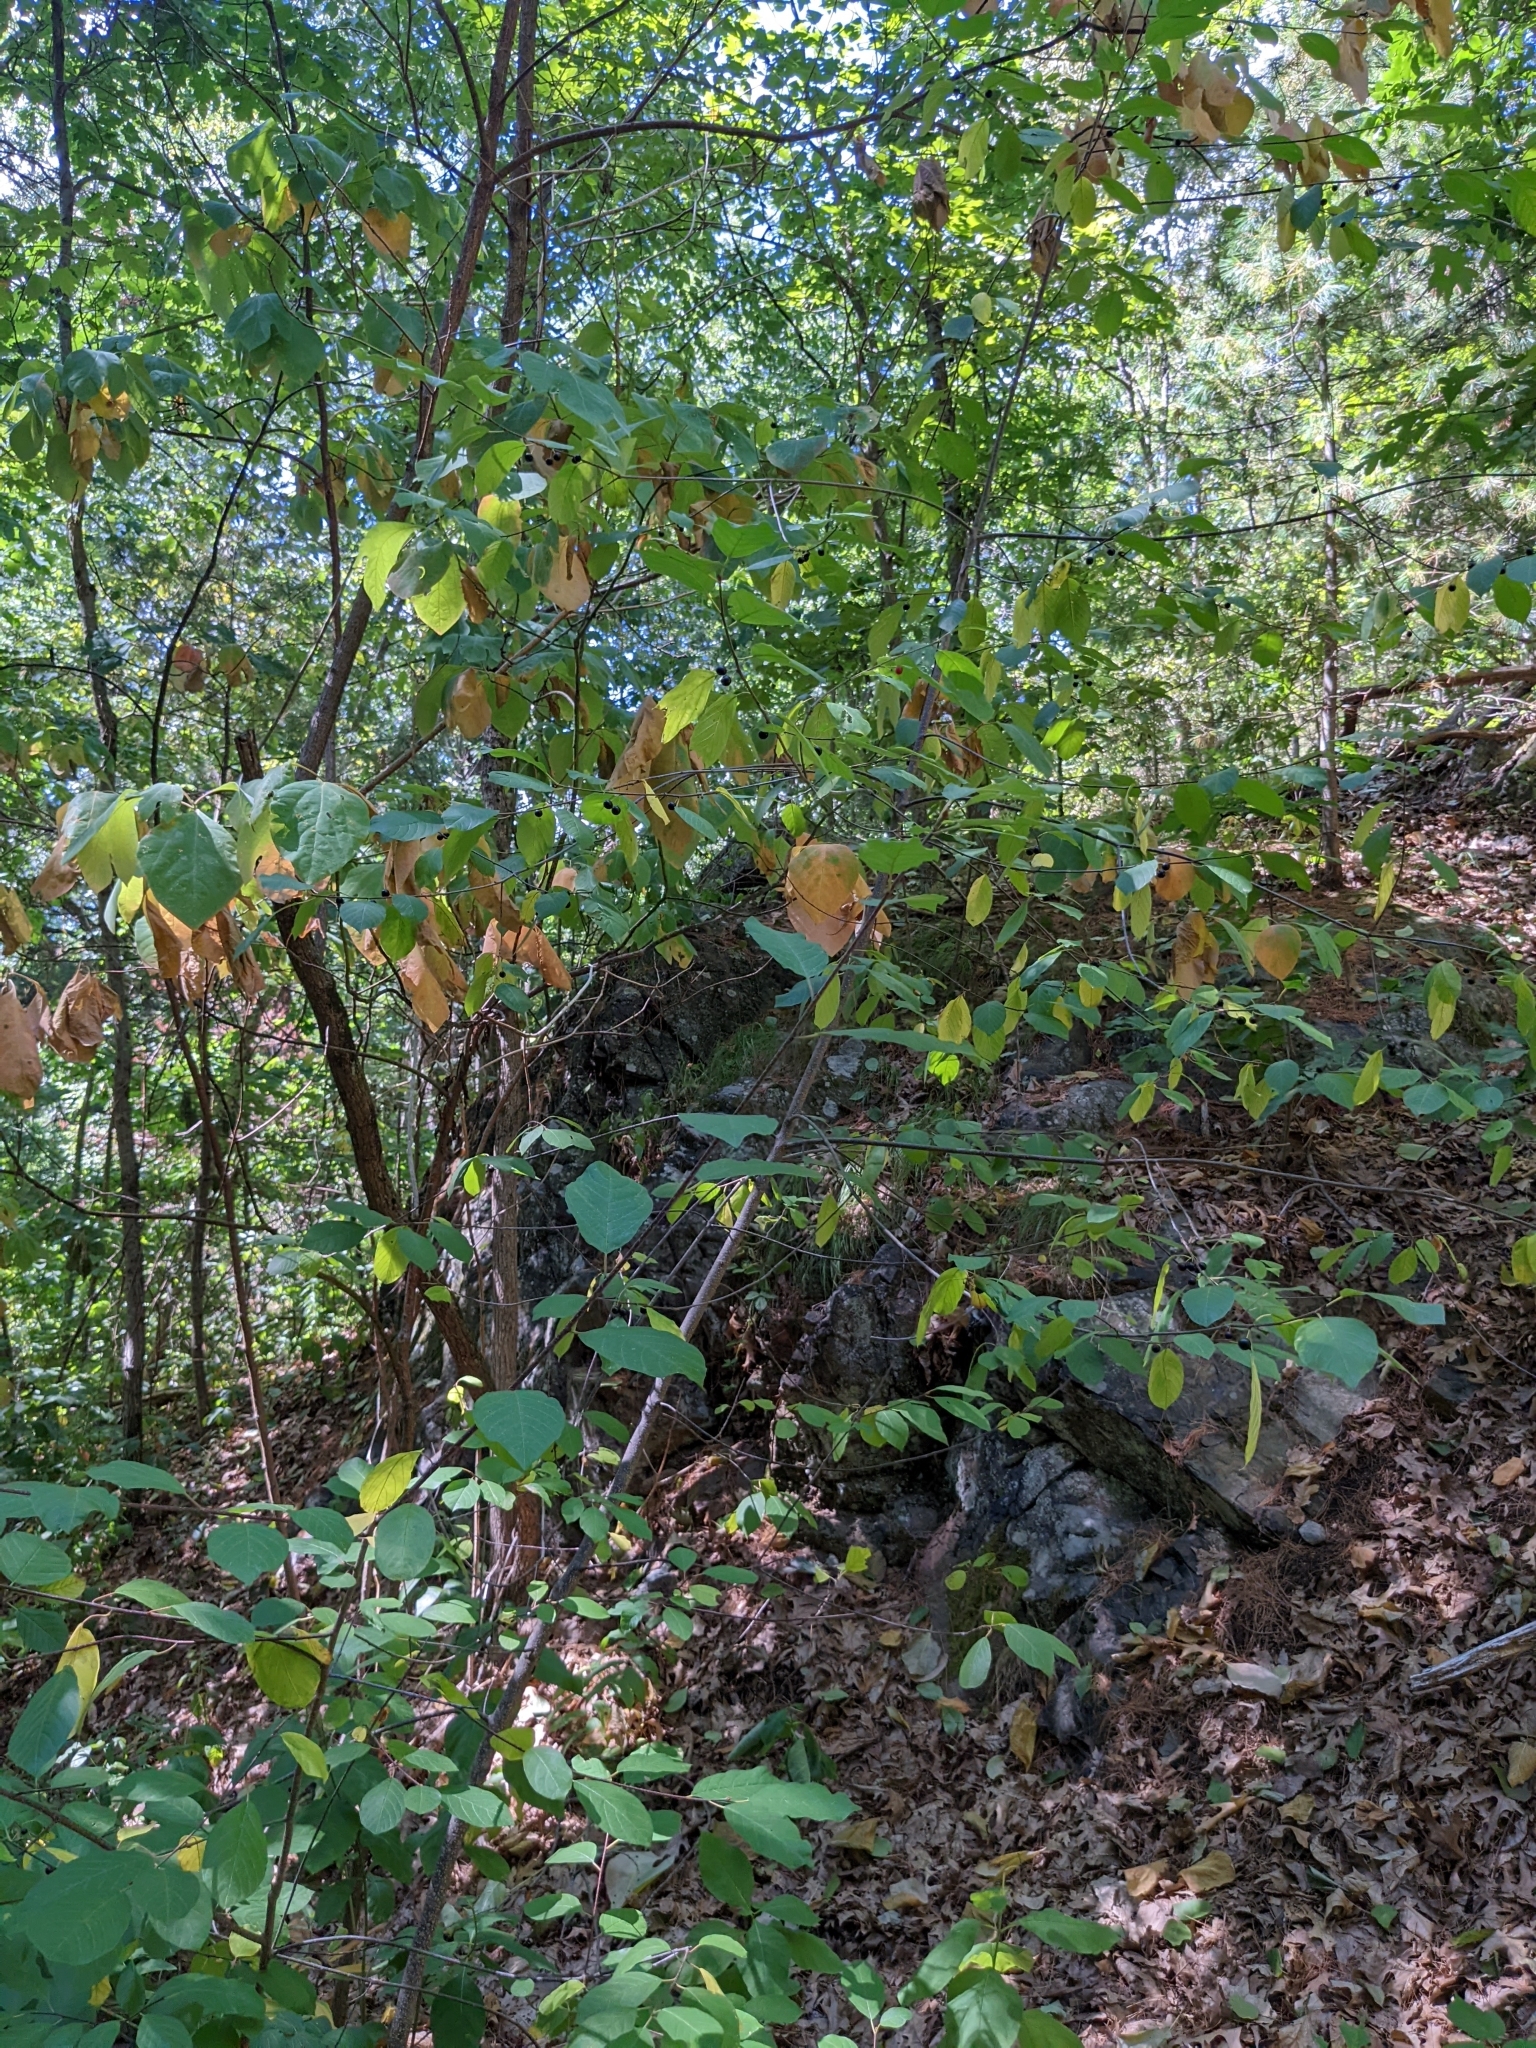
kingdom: Plantae
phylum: Tracheophyta
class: Magnoliopsida
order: Rosales
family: Rhamnaceae
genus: Frangula
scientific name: Frangula alnus
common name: Alder buckthorn
